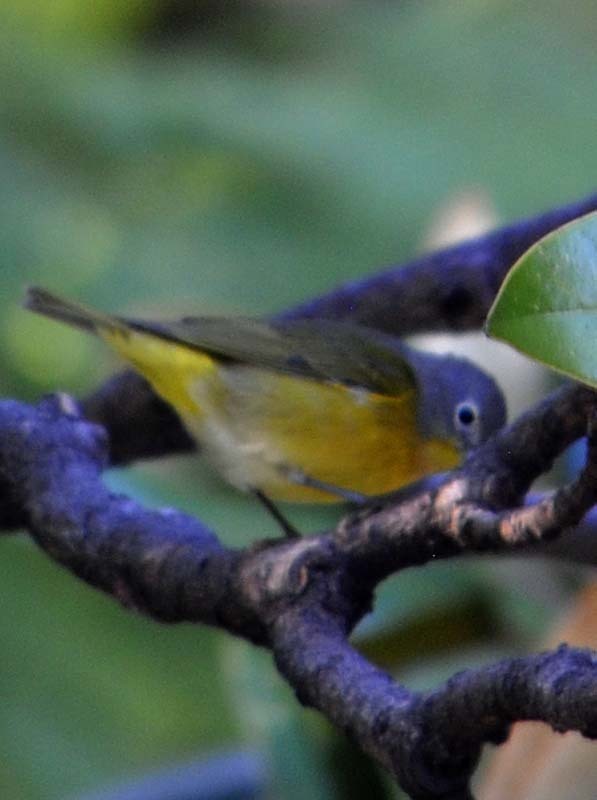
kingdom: Animalia
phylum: Chordata
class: Aves
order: Passeriformes
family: Parulidae
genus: Leiothlypis
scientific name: Leiothlypis ruficapilla
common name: Nashville warbler
